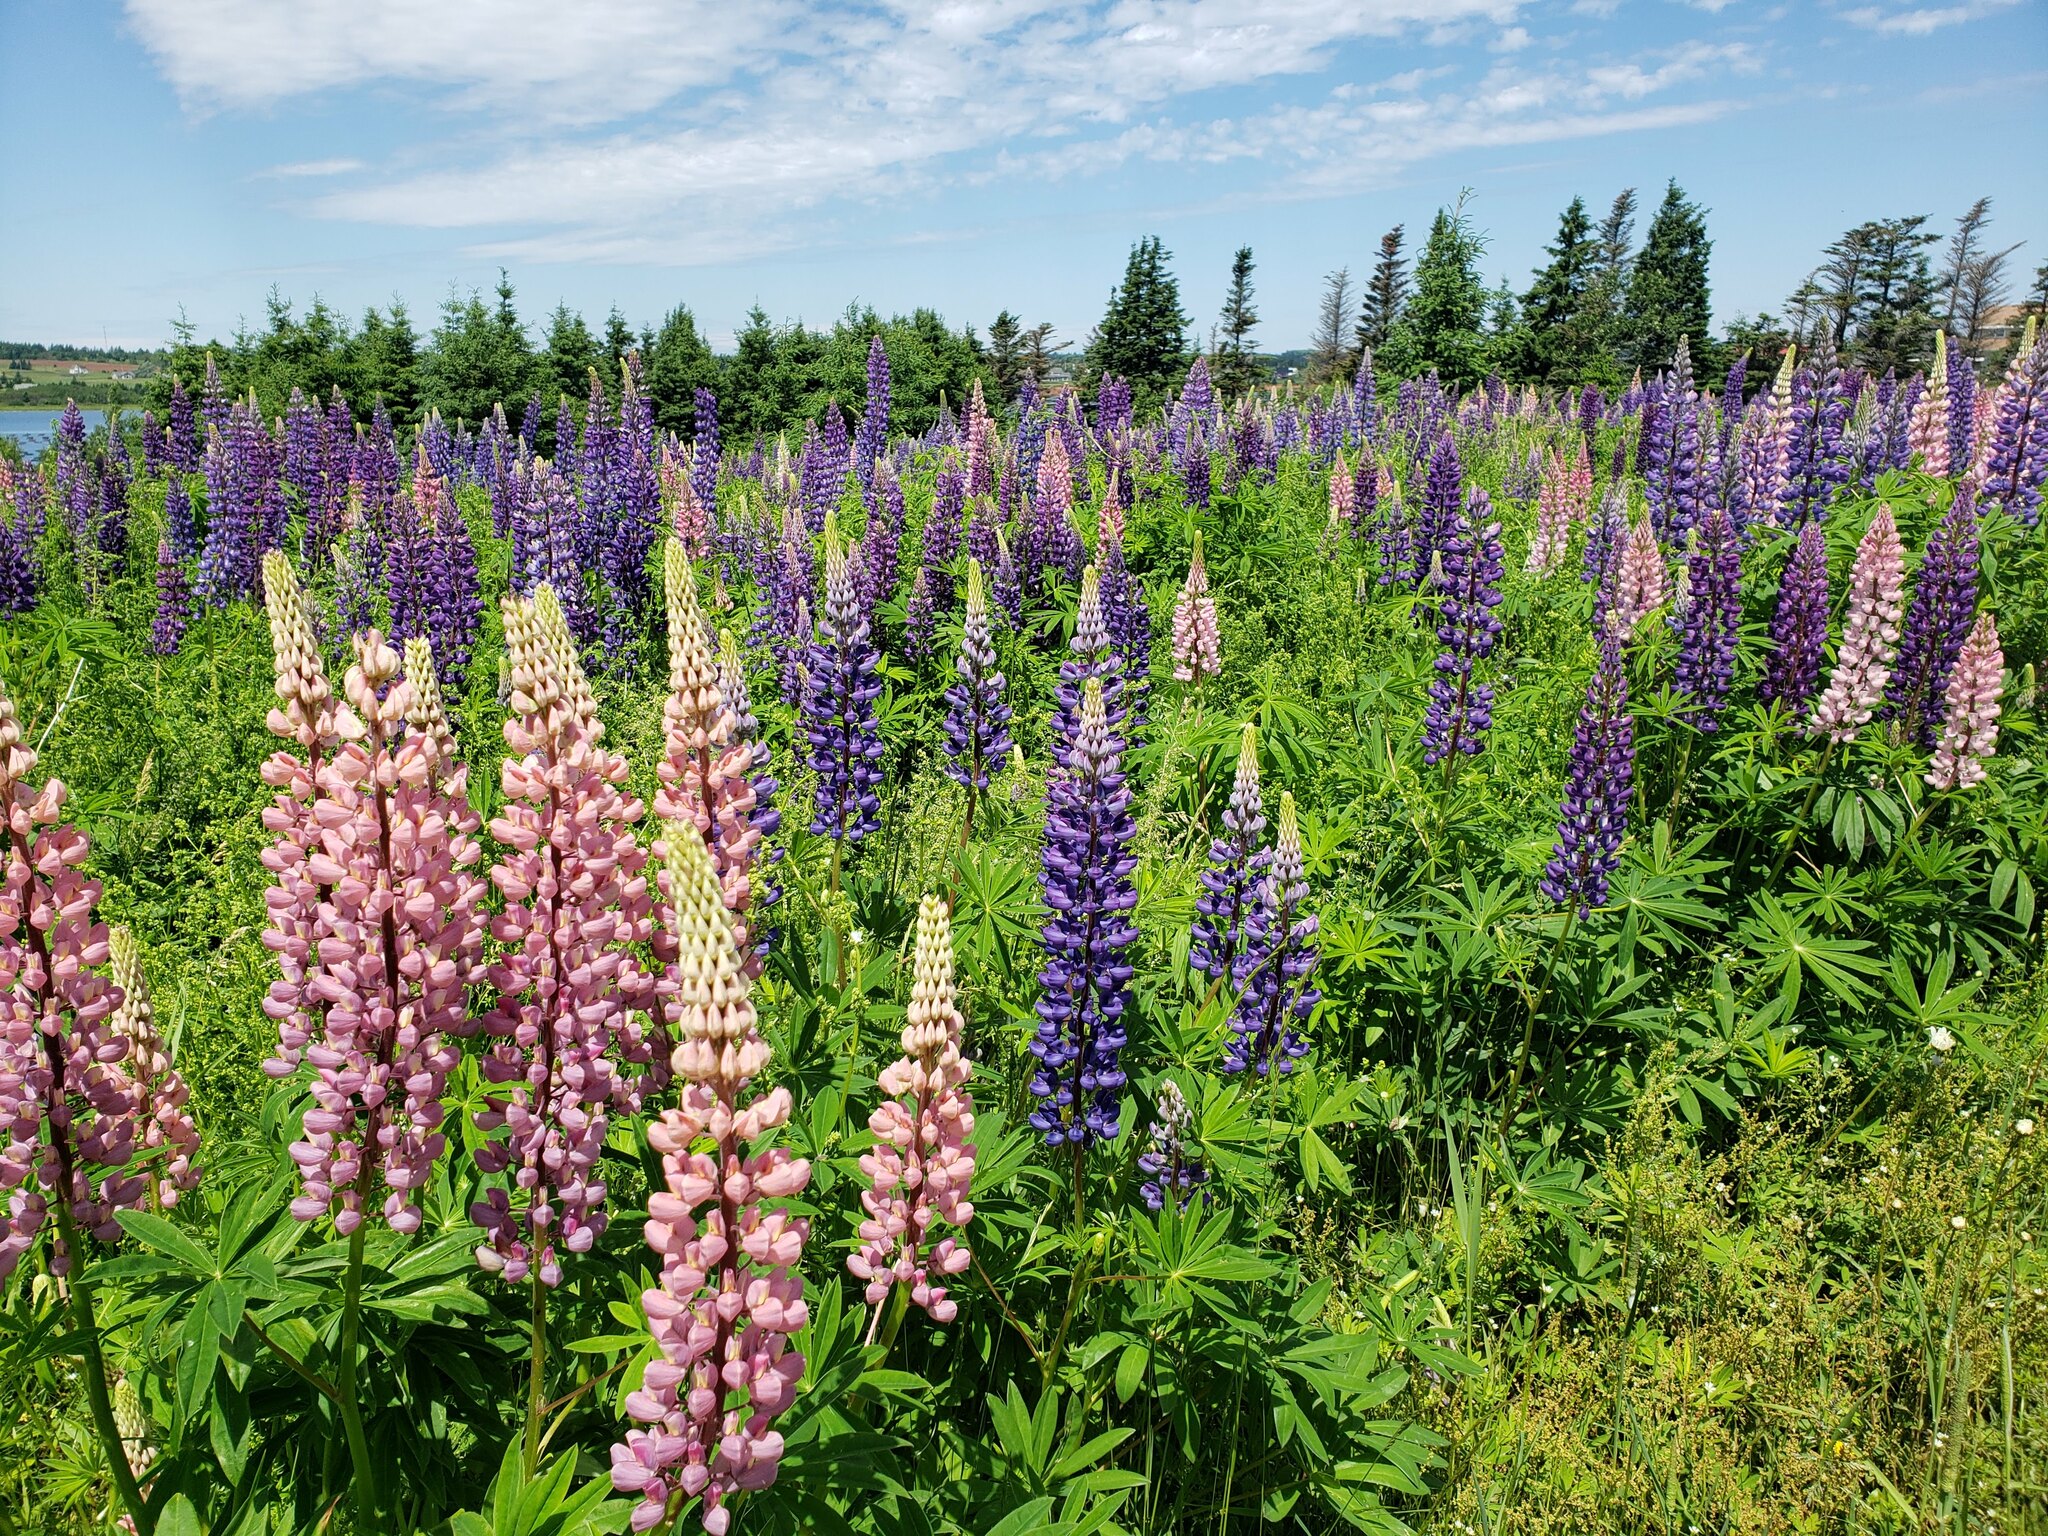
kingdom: Plantae
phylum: Tracheophyta
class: Magnoliopsida
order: Fabales
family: Fabaceae
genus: Lupinus
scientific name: Lupinus polyphyllus
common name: Garden lupin
